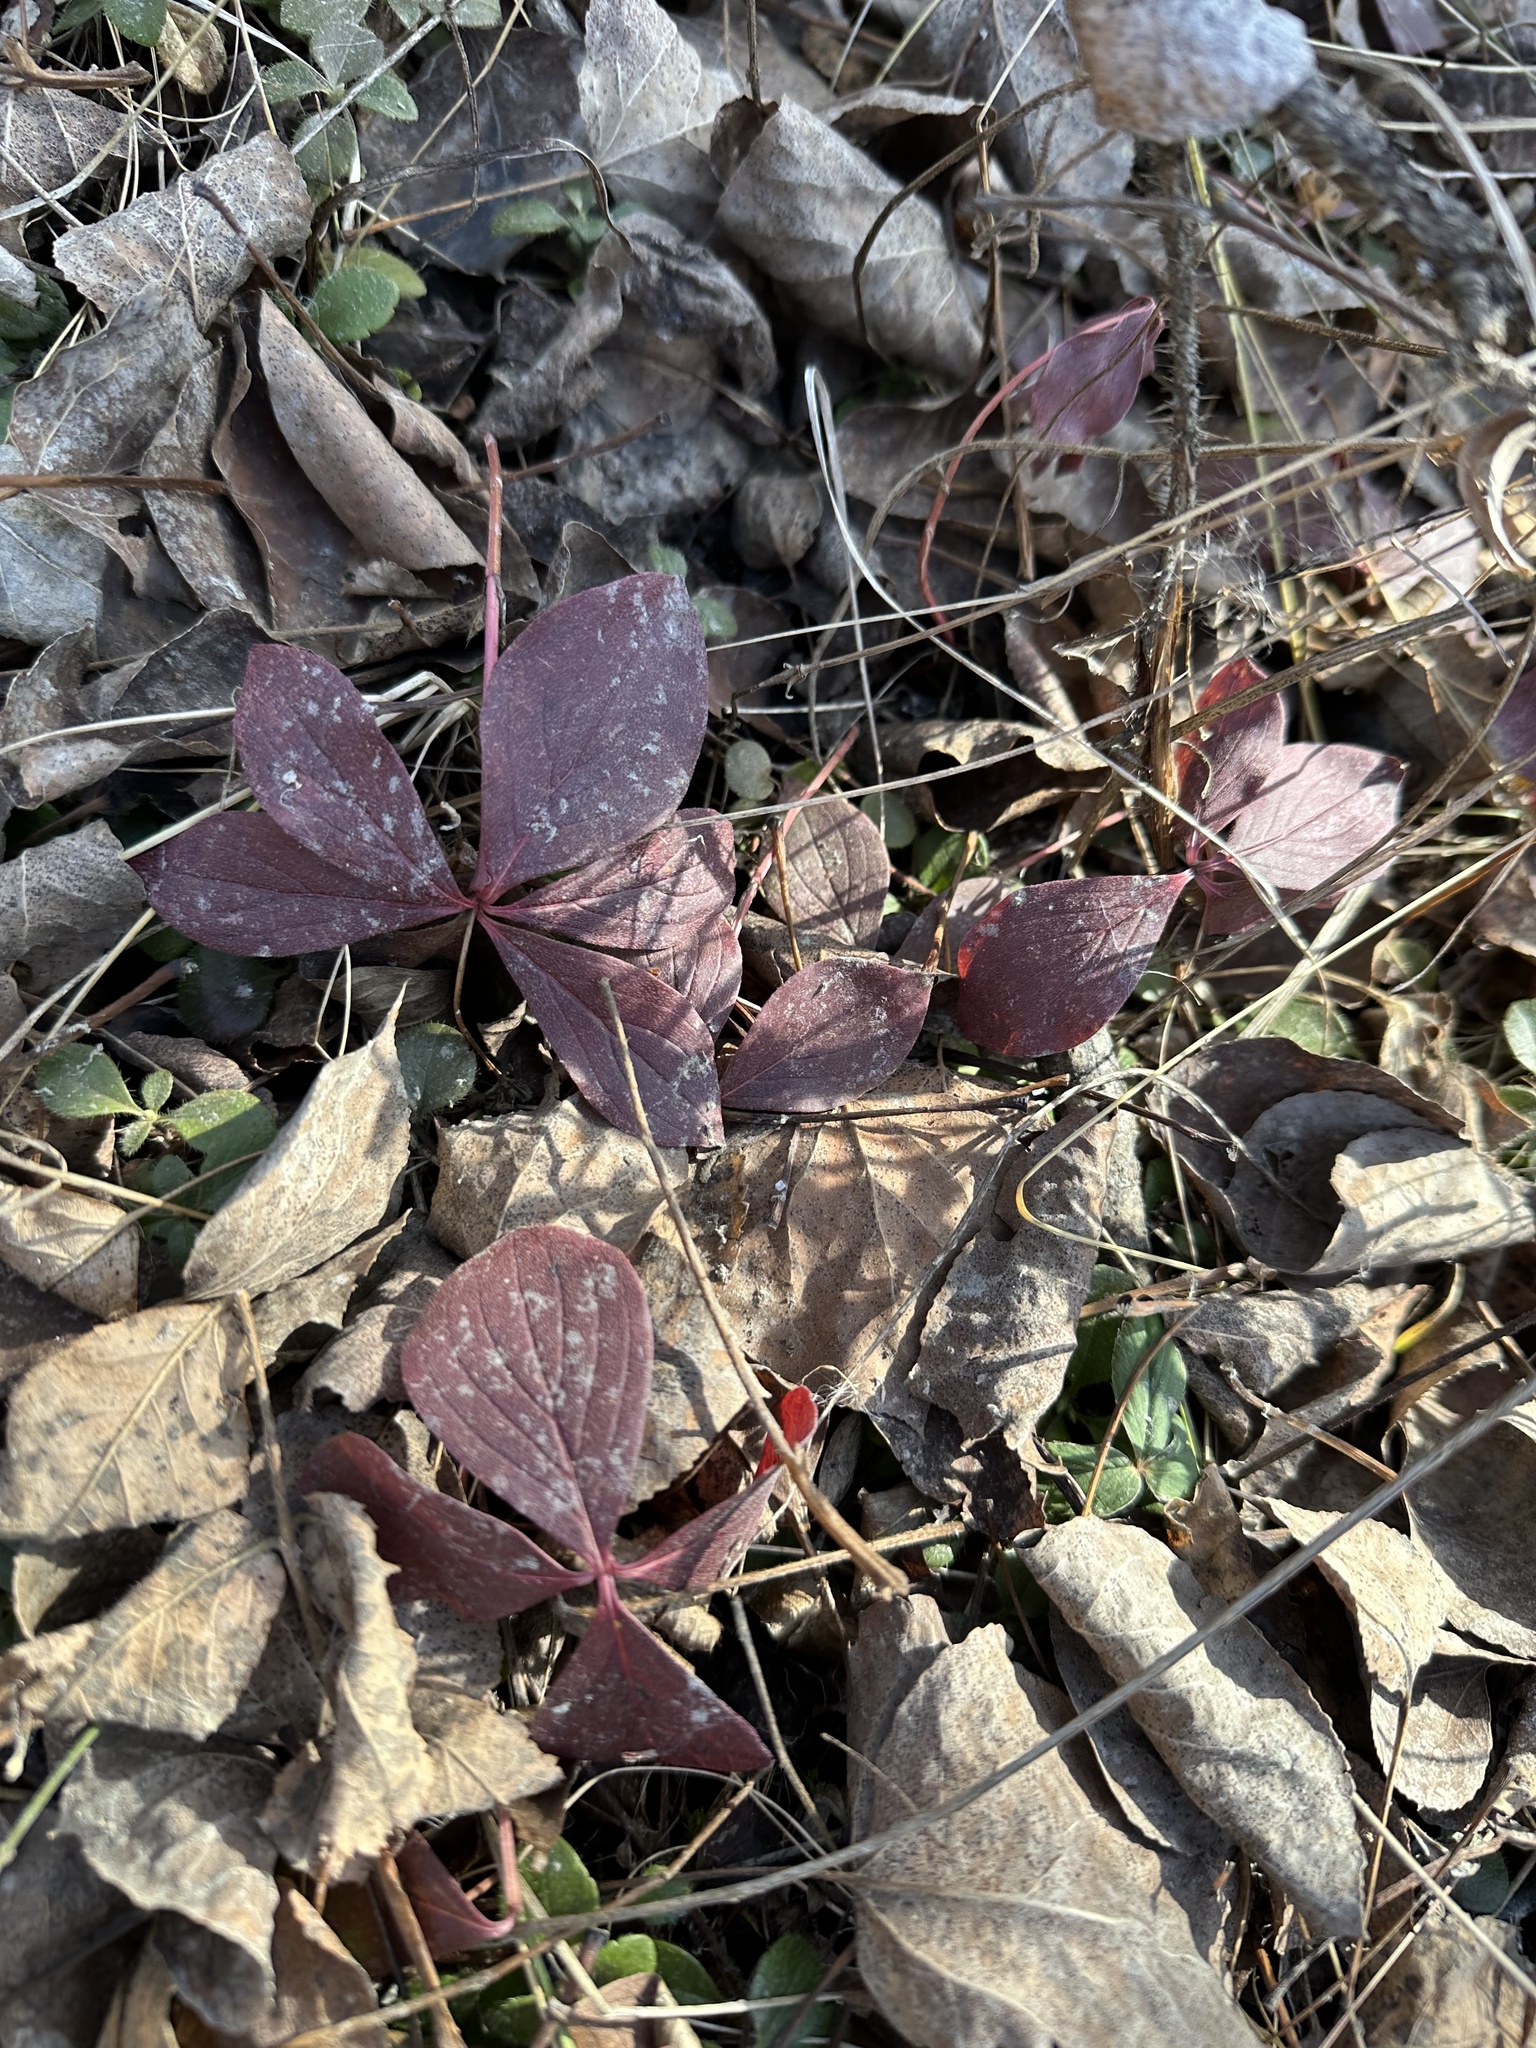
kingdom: Plantae
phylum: Tracheophyta
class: Magnoliopsida
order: Cornales
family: Cornaceae
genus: Cornus
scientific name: Cornus canadensis
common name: Creeping dogwood
